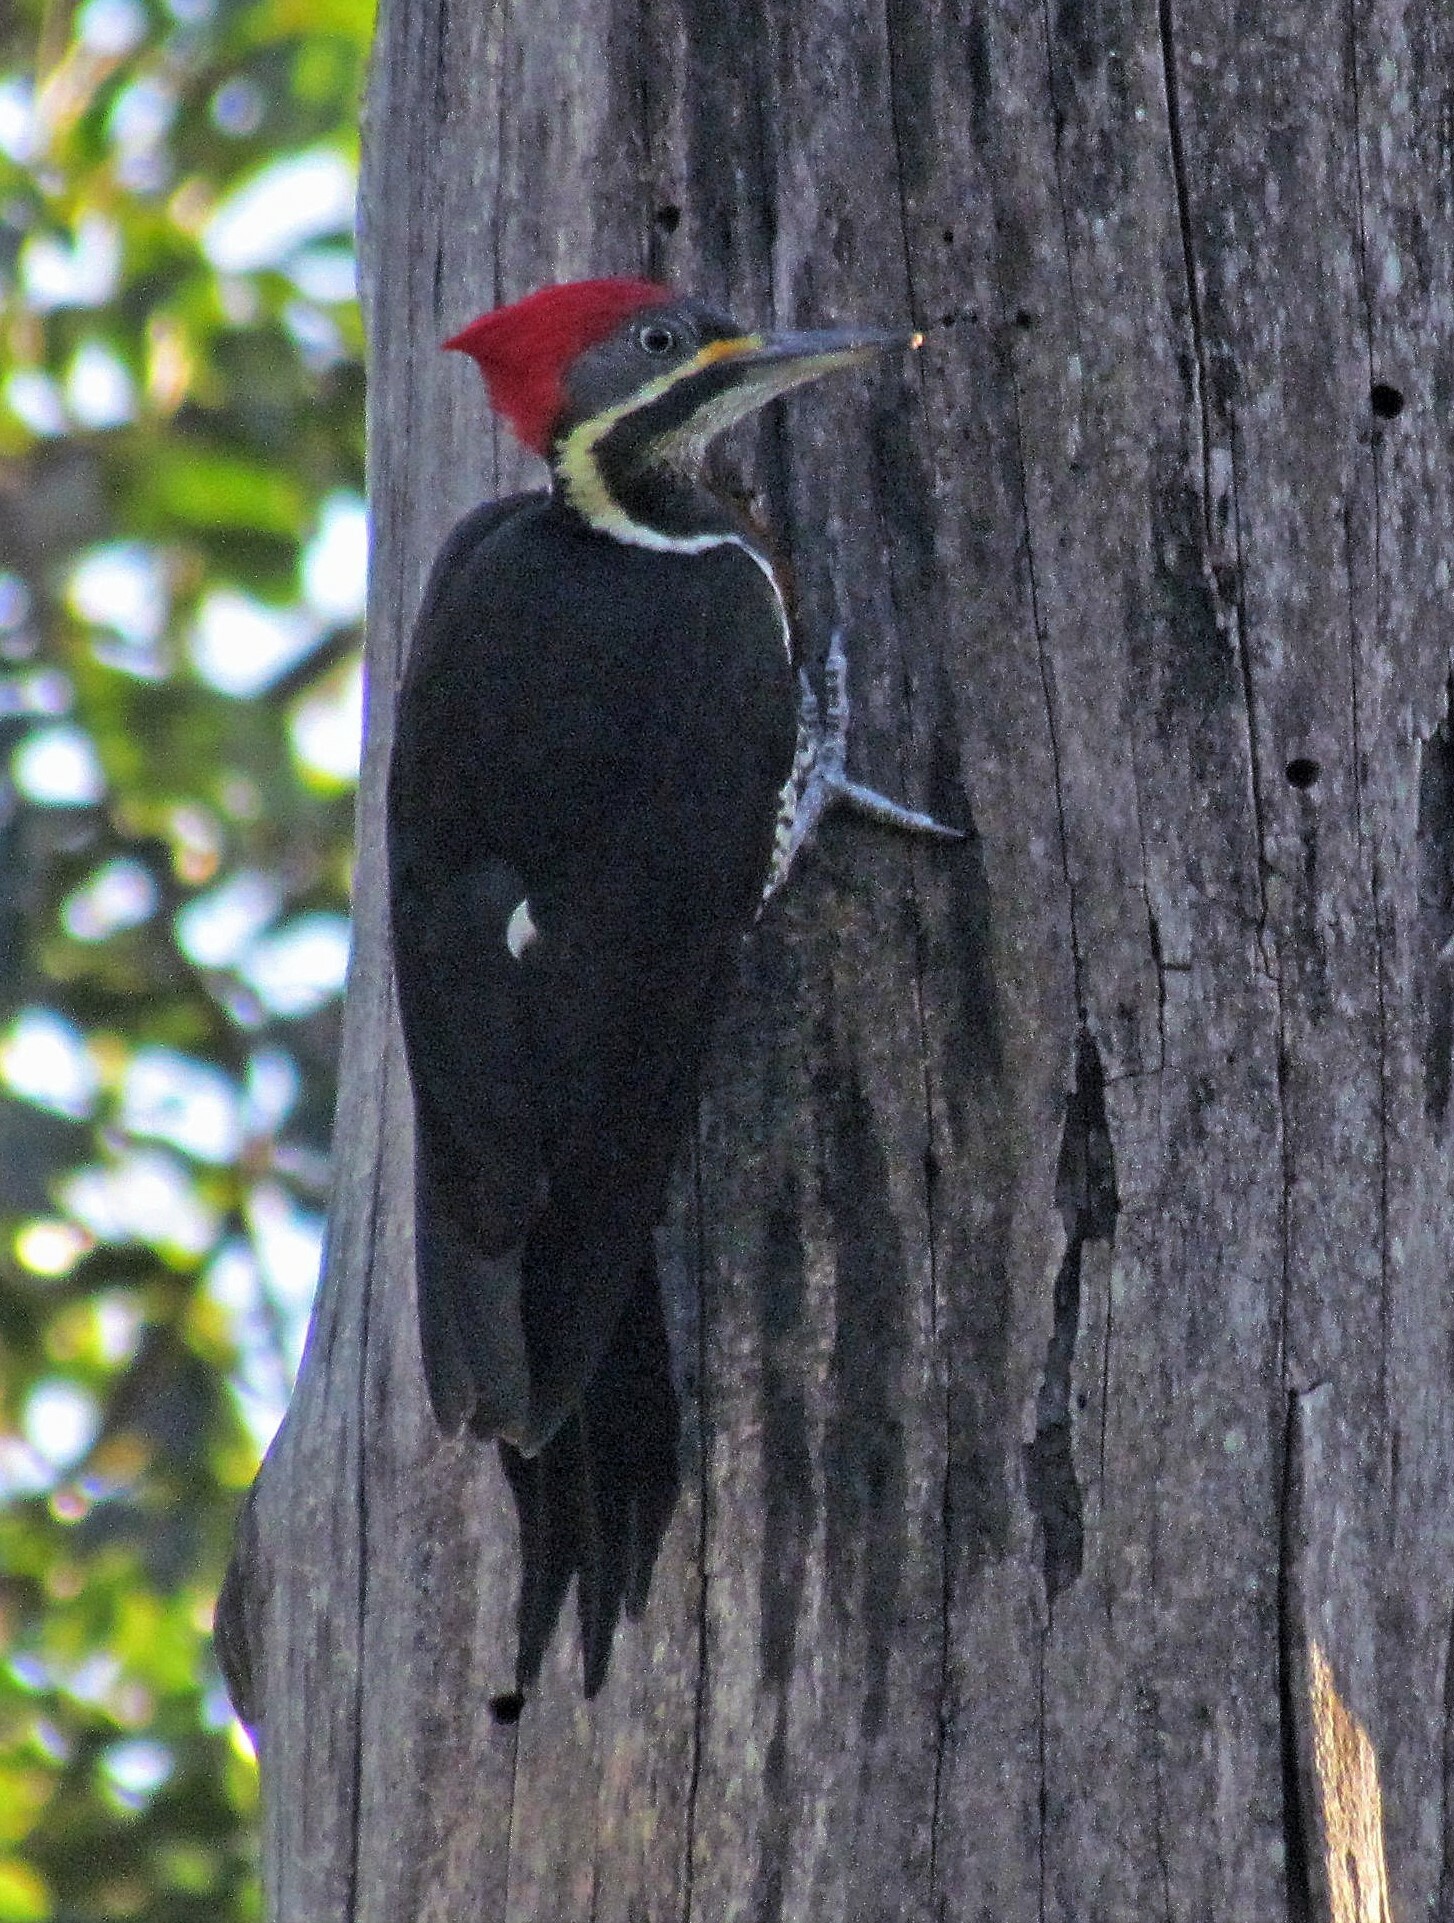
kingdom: Animalia
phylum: Chordata
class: Aves
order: Piciformes
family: Picidae
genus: Dryocopus
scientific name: Dryocopus lineatus
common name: Lineated woodpecker
